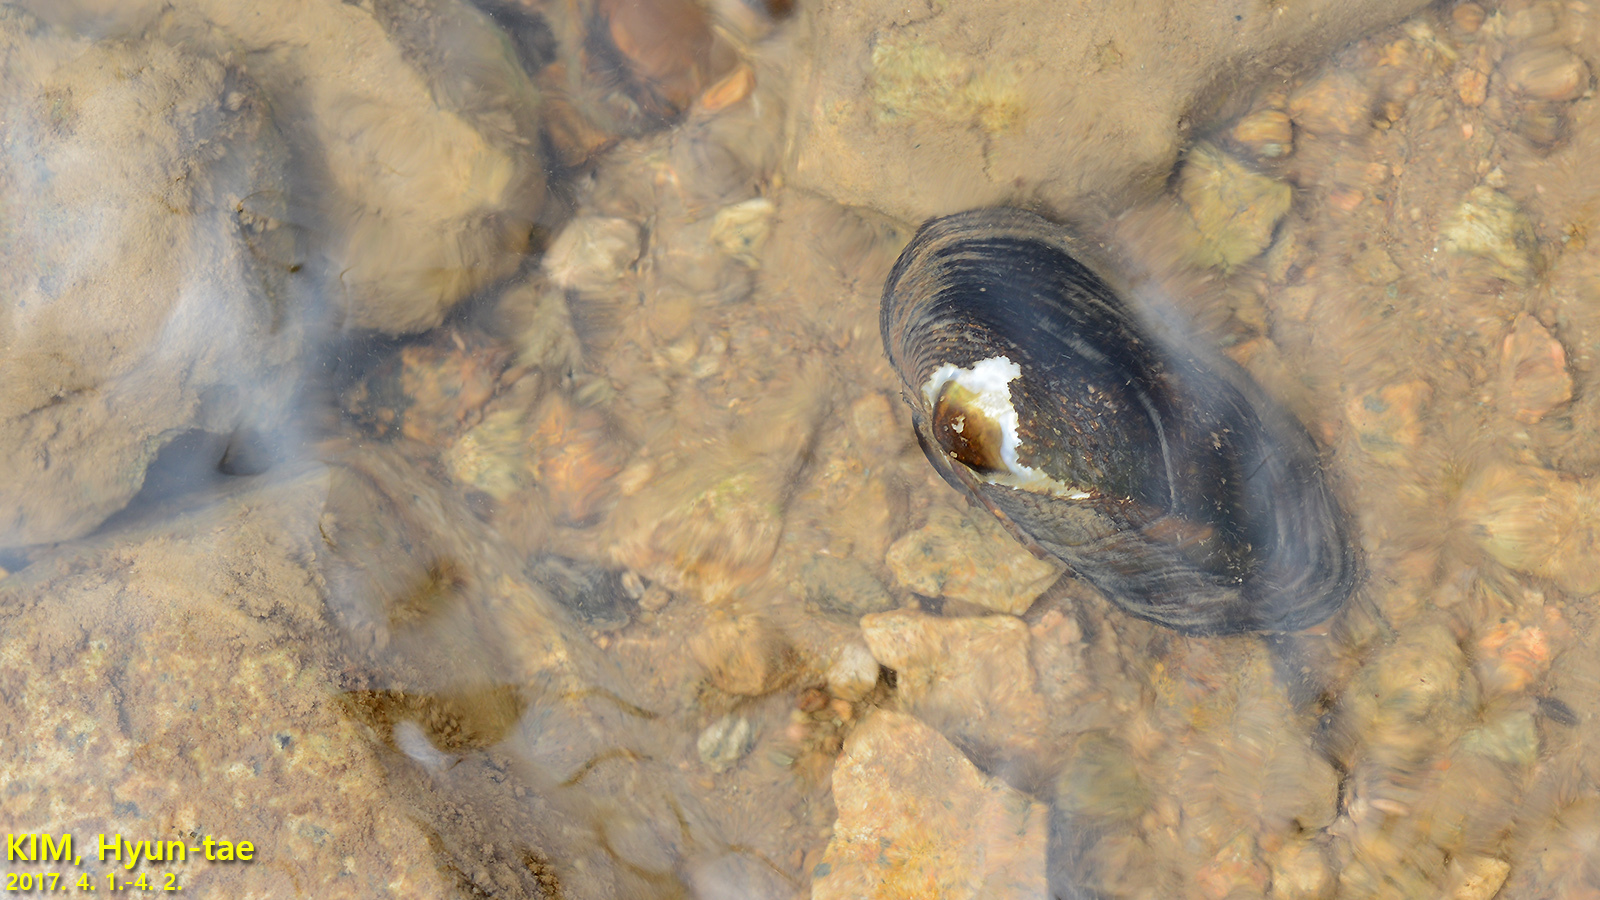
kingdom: Animalia
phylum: Mollusca
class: Bivalvia
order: Unionida
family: Unionidae
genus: Nodularia
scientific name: Nodularia douglasiae
